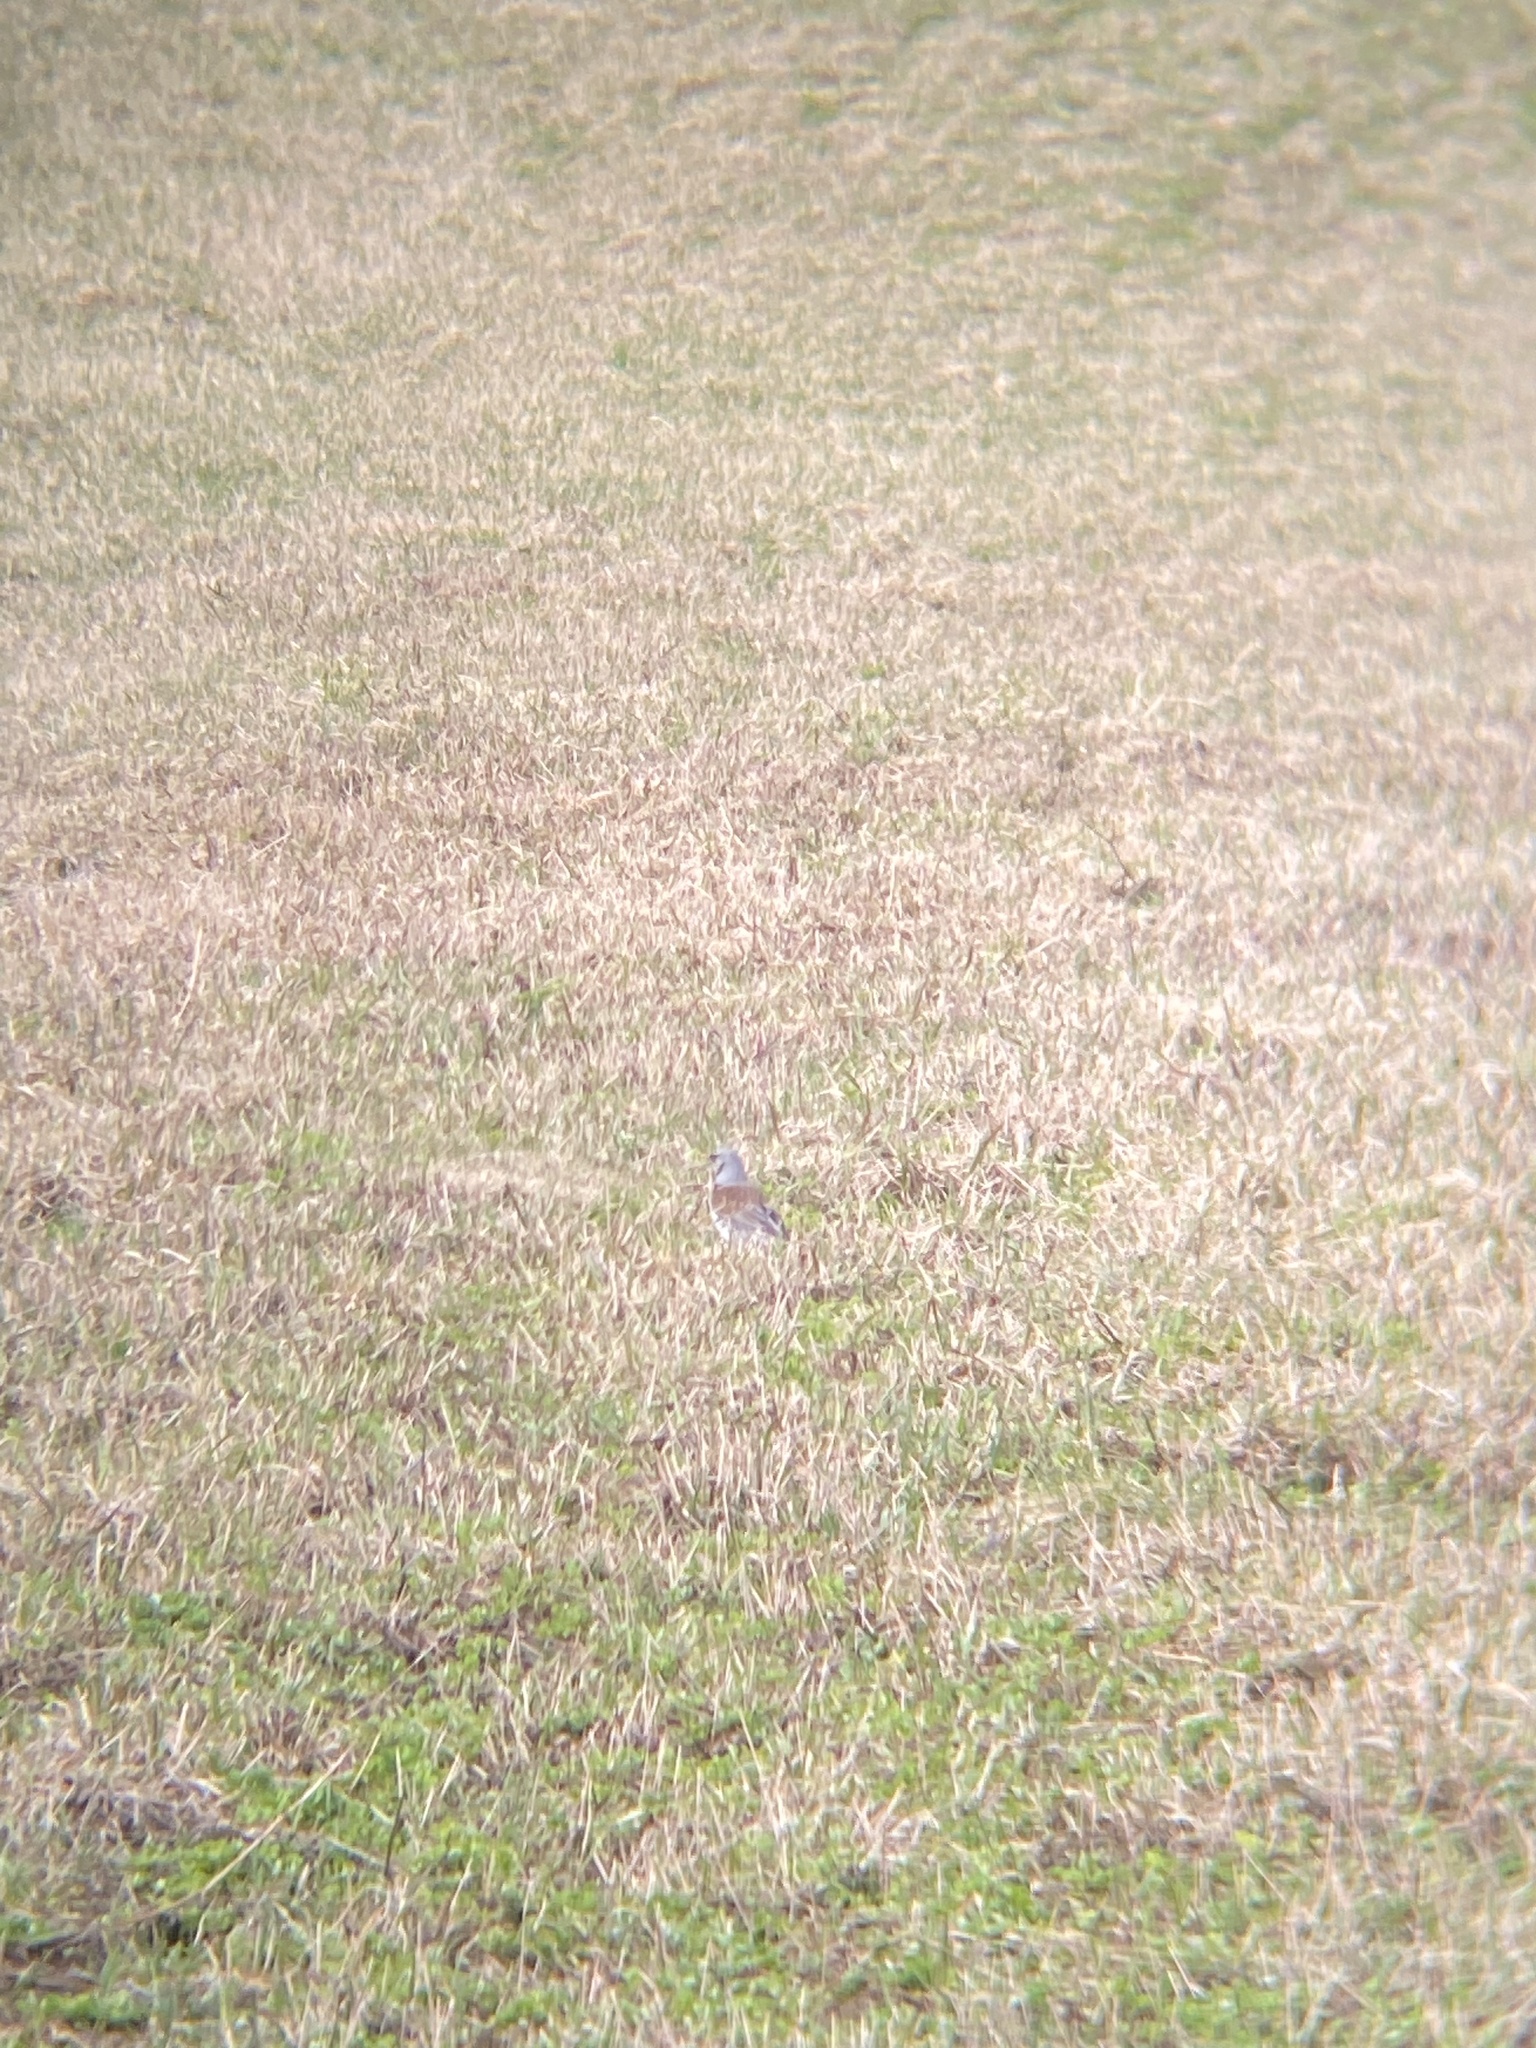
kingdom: Animalia
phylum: Chordata
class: Aves
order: Passeriformes
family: Turdidae
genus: Turdus
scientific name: Turdus pilaris
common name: Fieldfare
